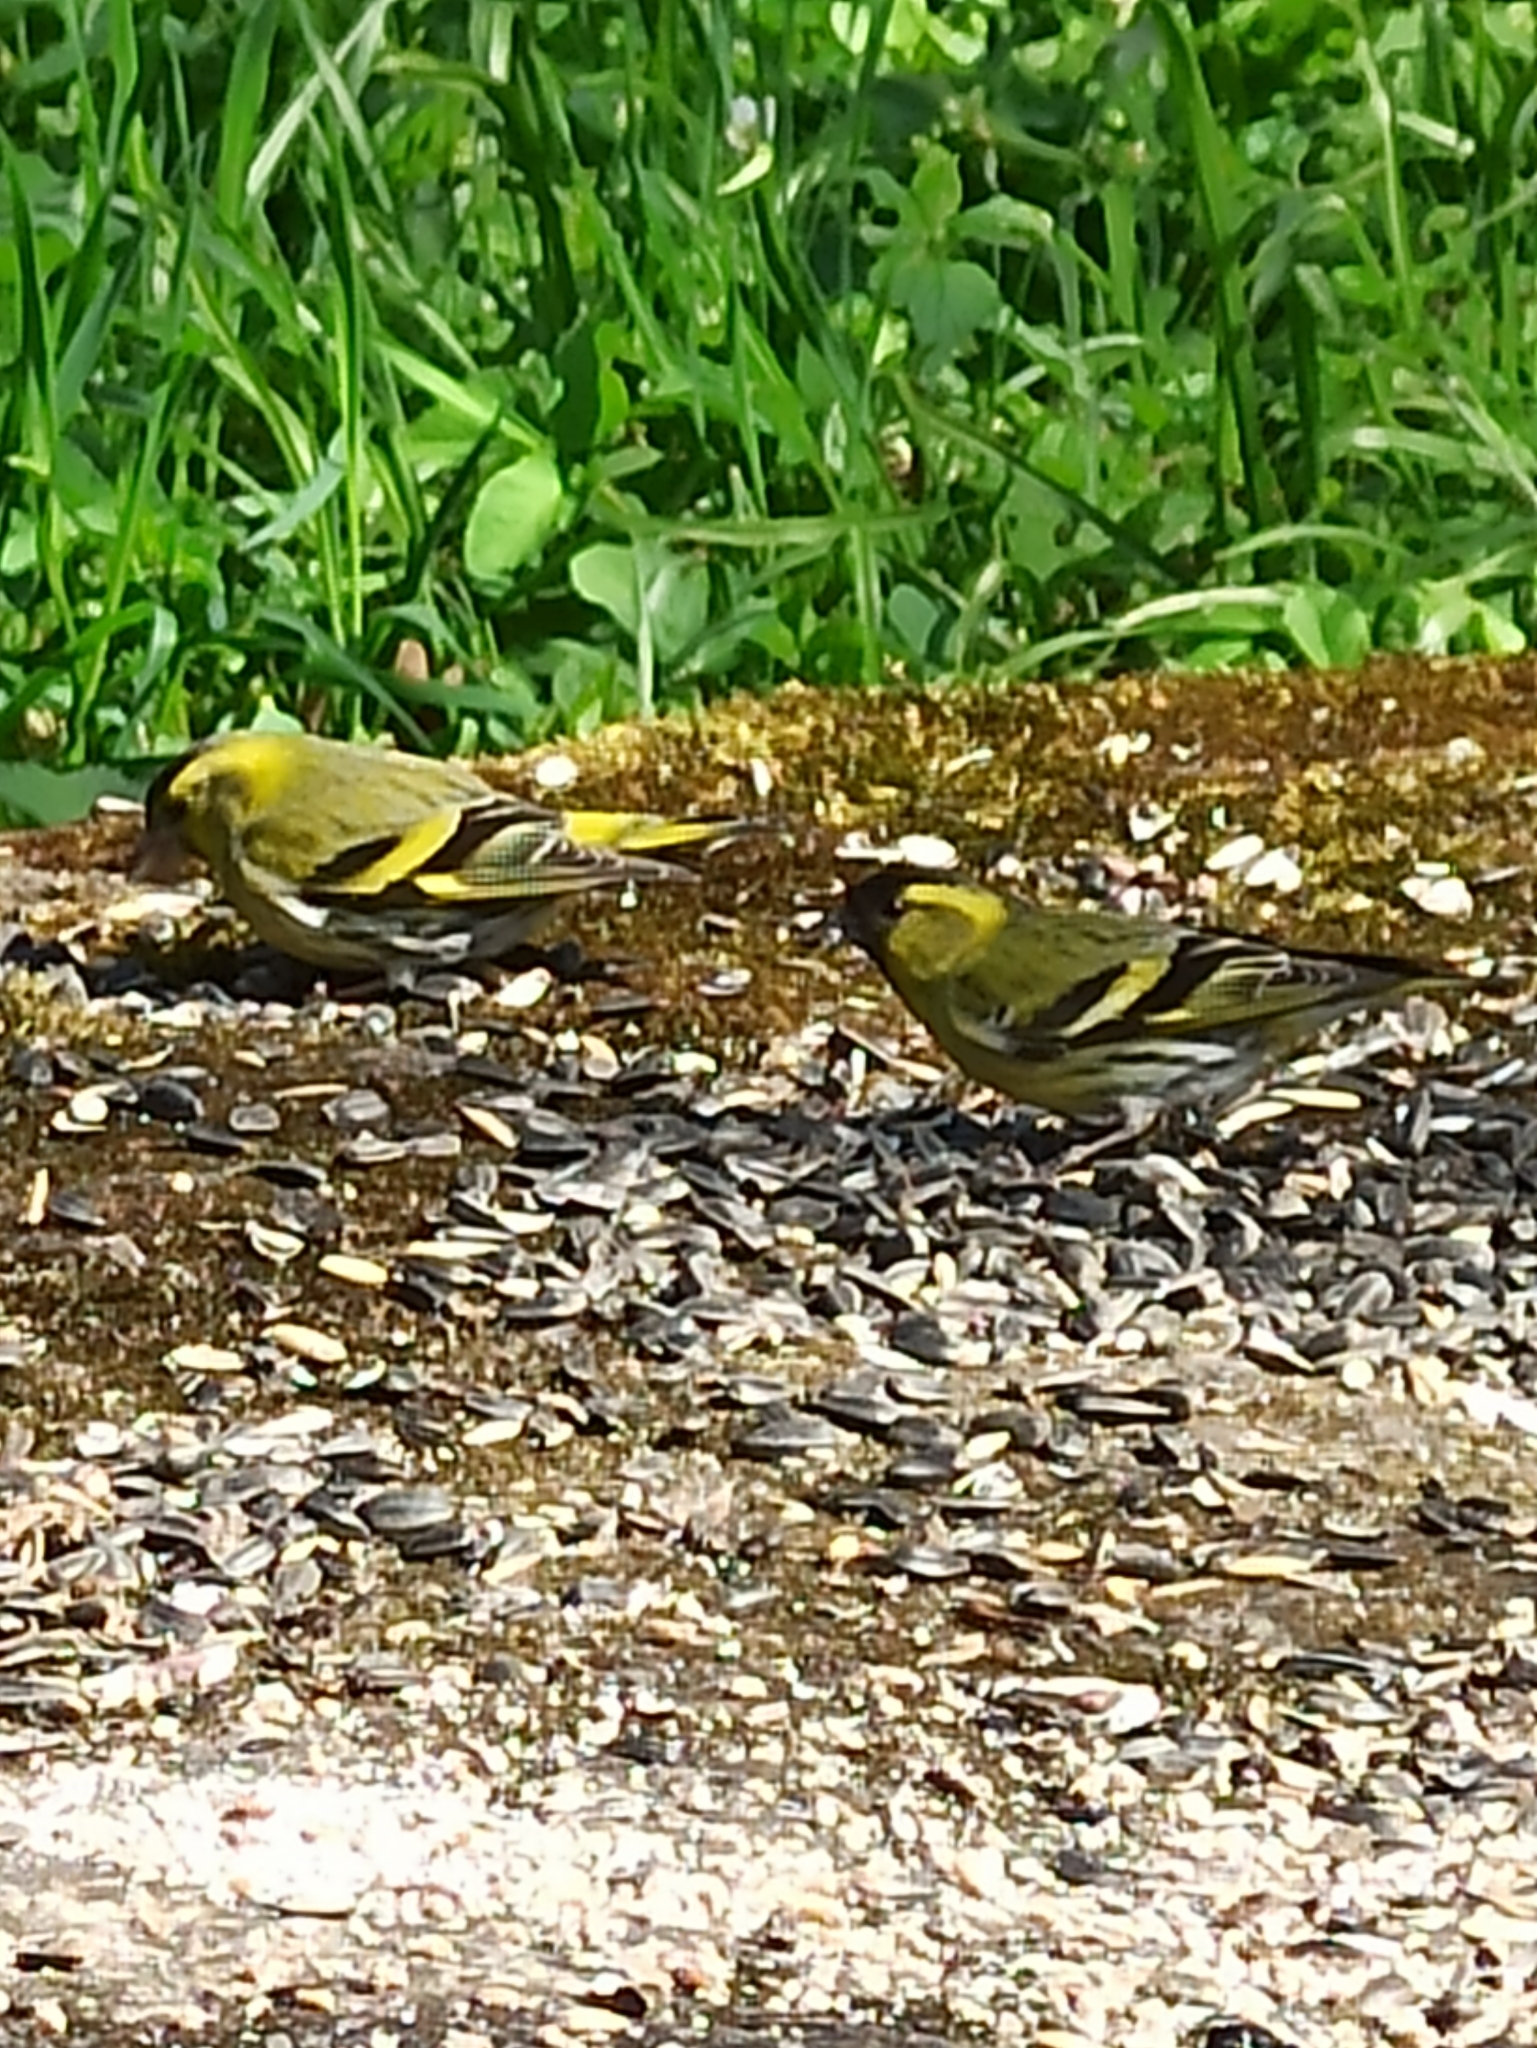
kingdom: Animalia
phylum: Chordata
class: Aves
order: Passeriformes
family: Fringillidae
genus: Spinus
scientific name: Spinus spinus
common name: Eurasian siskin
